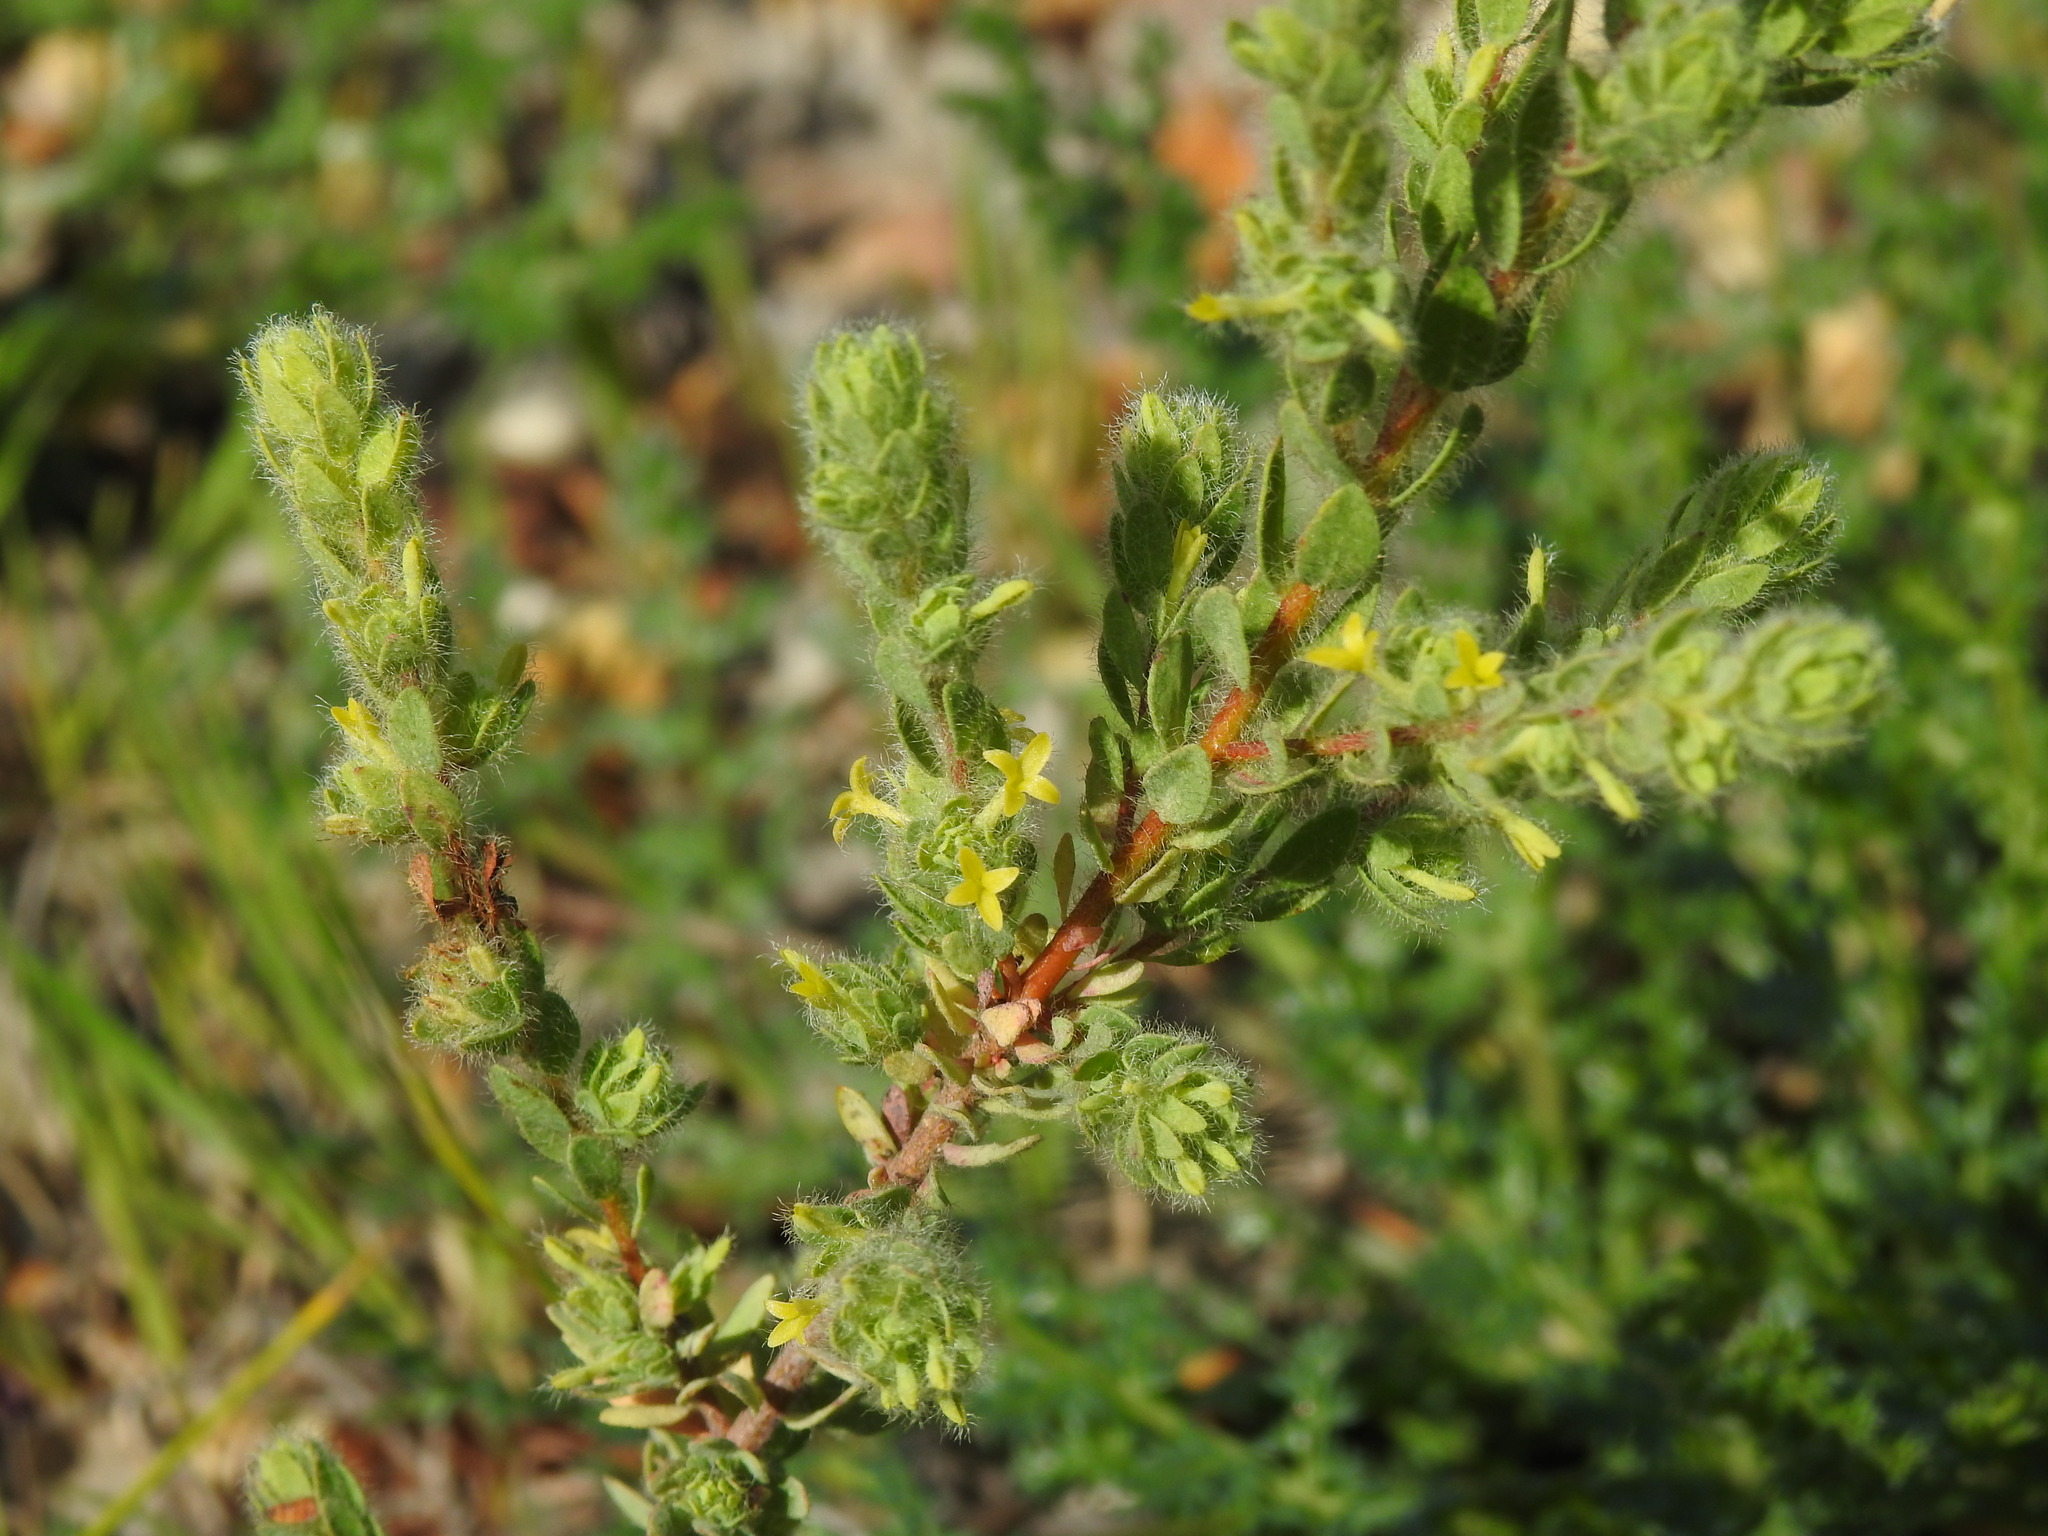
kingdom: Plantae
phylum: Tracheophyta
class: Magnoliopsida
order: Malvales
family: Thymelaeaceae
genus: Thymelaea
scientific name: Thymelaea villosa
